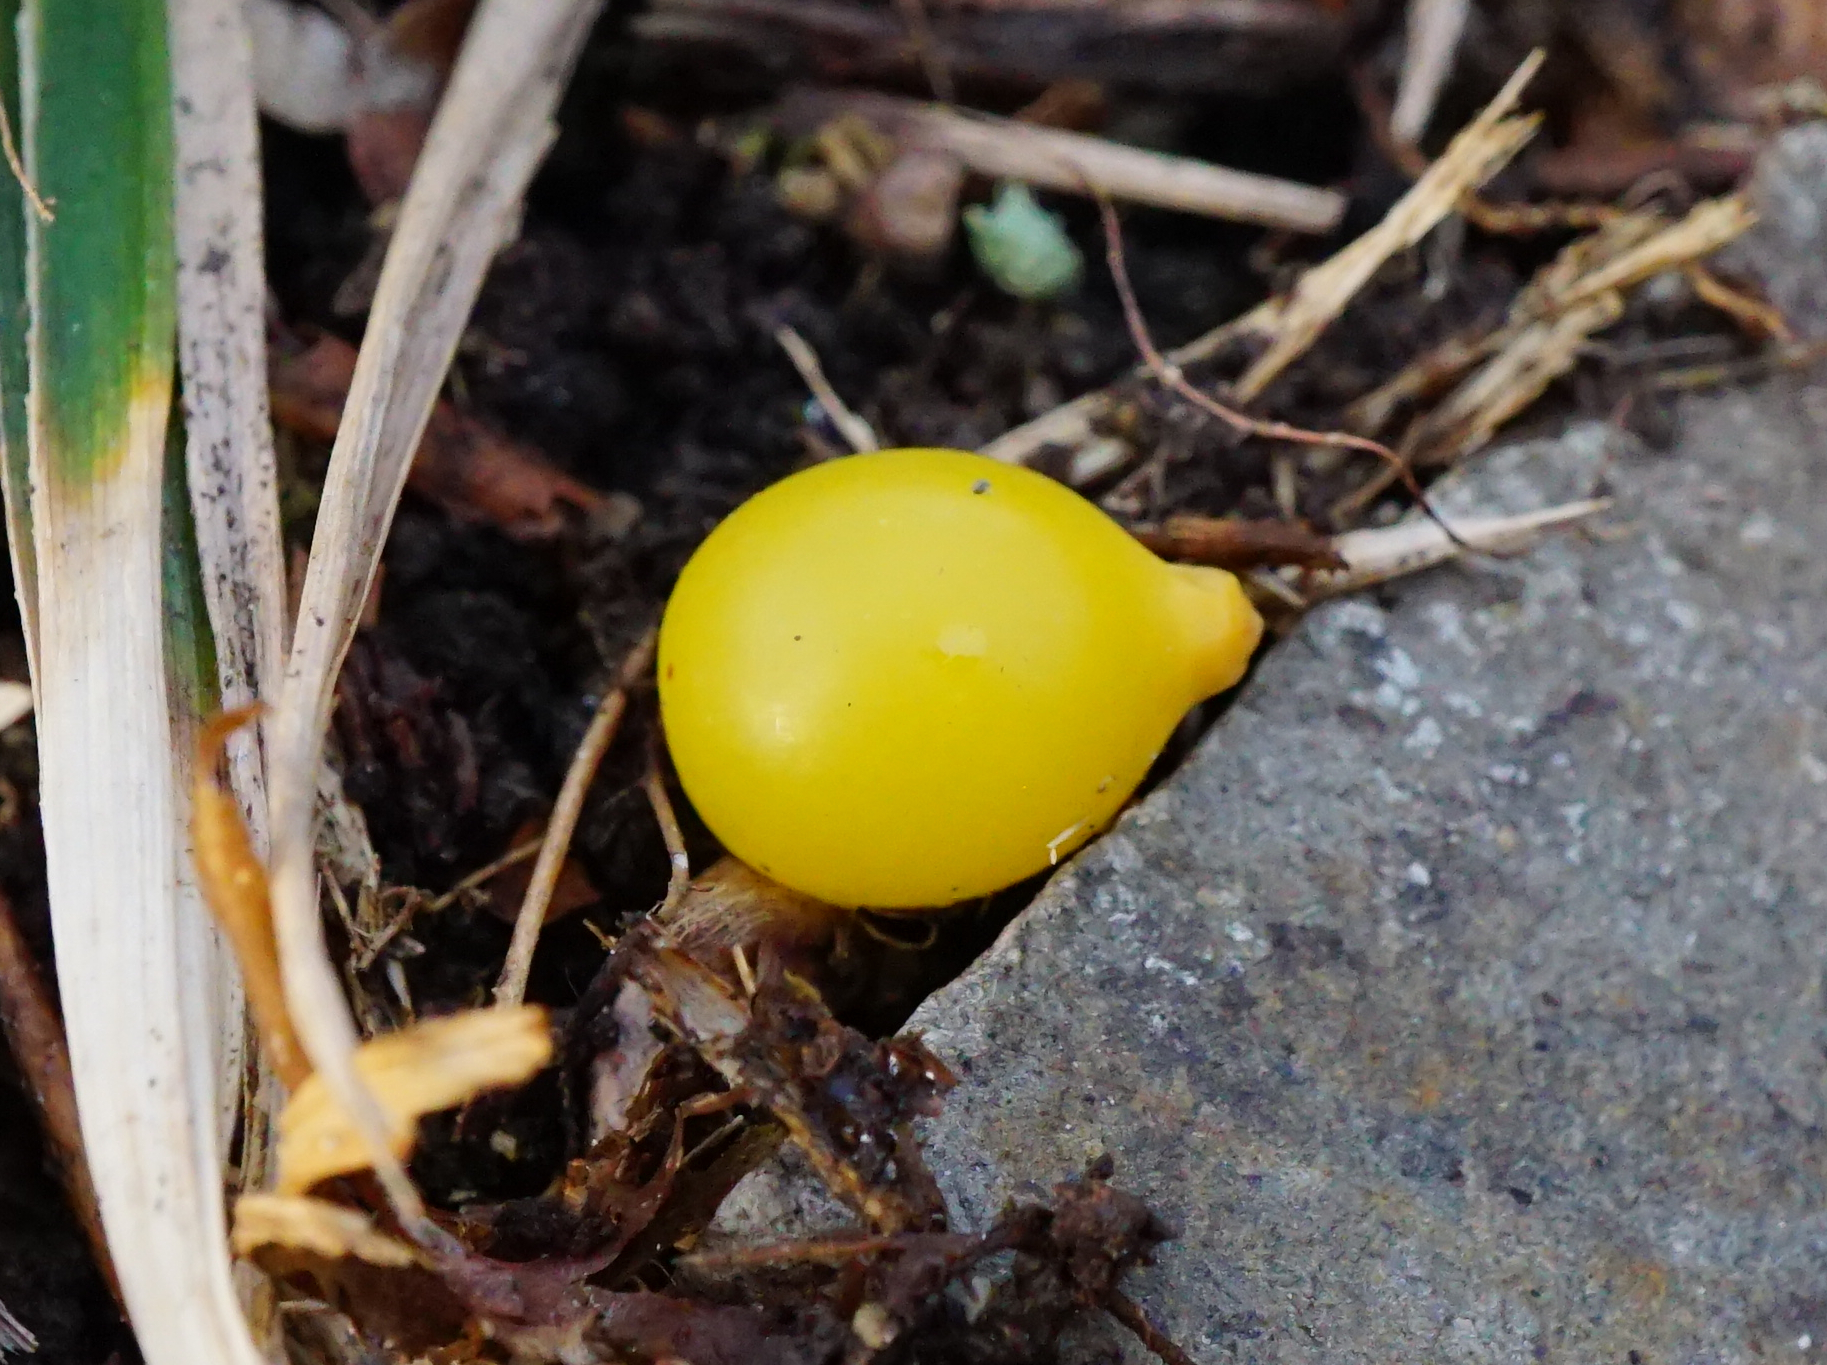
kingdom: Plantae
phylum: Tracheophyta
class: Magnoliopsida
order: Santalales
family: Loranthaceae
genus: Loranthus
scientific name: Loranthus europaeus
